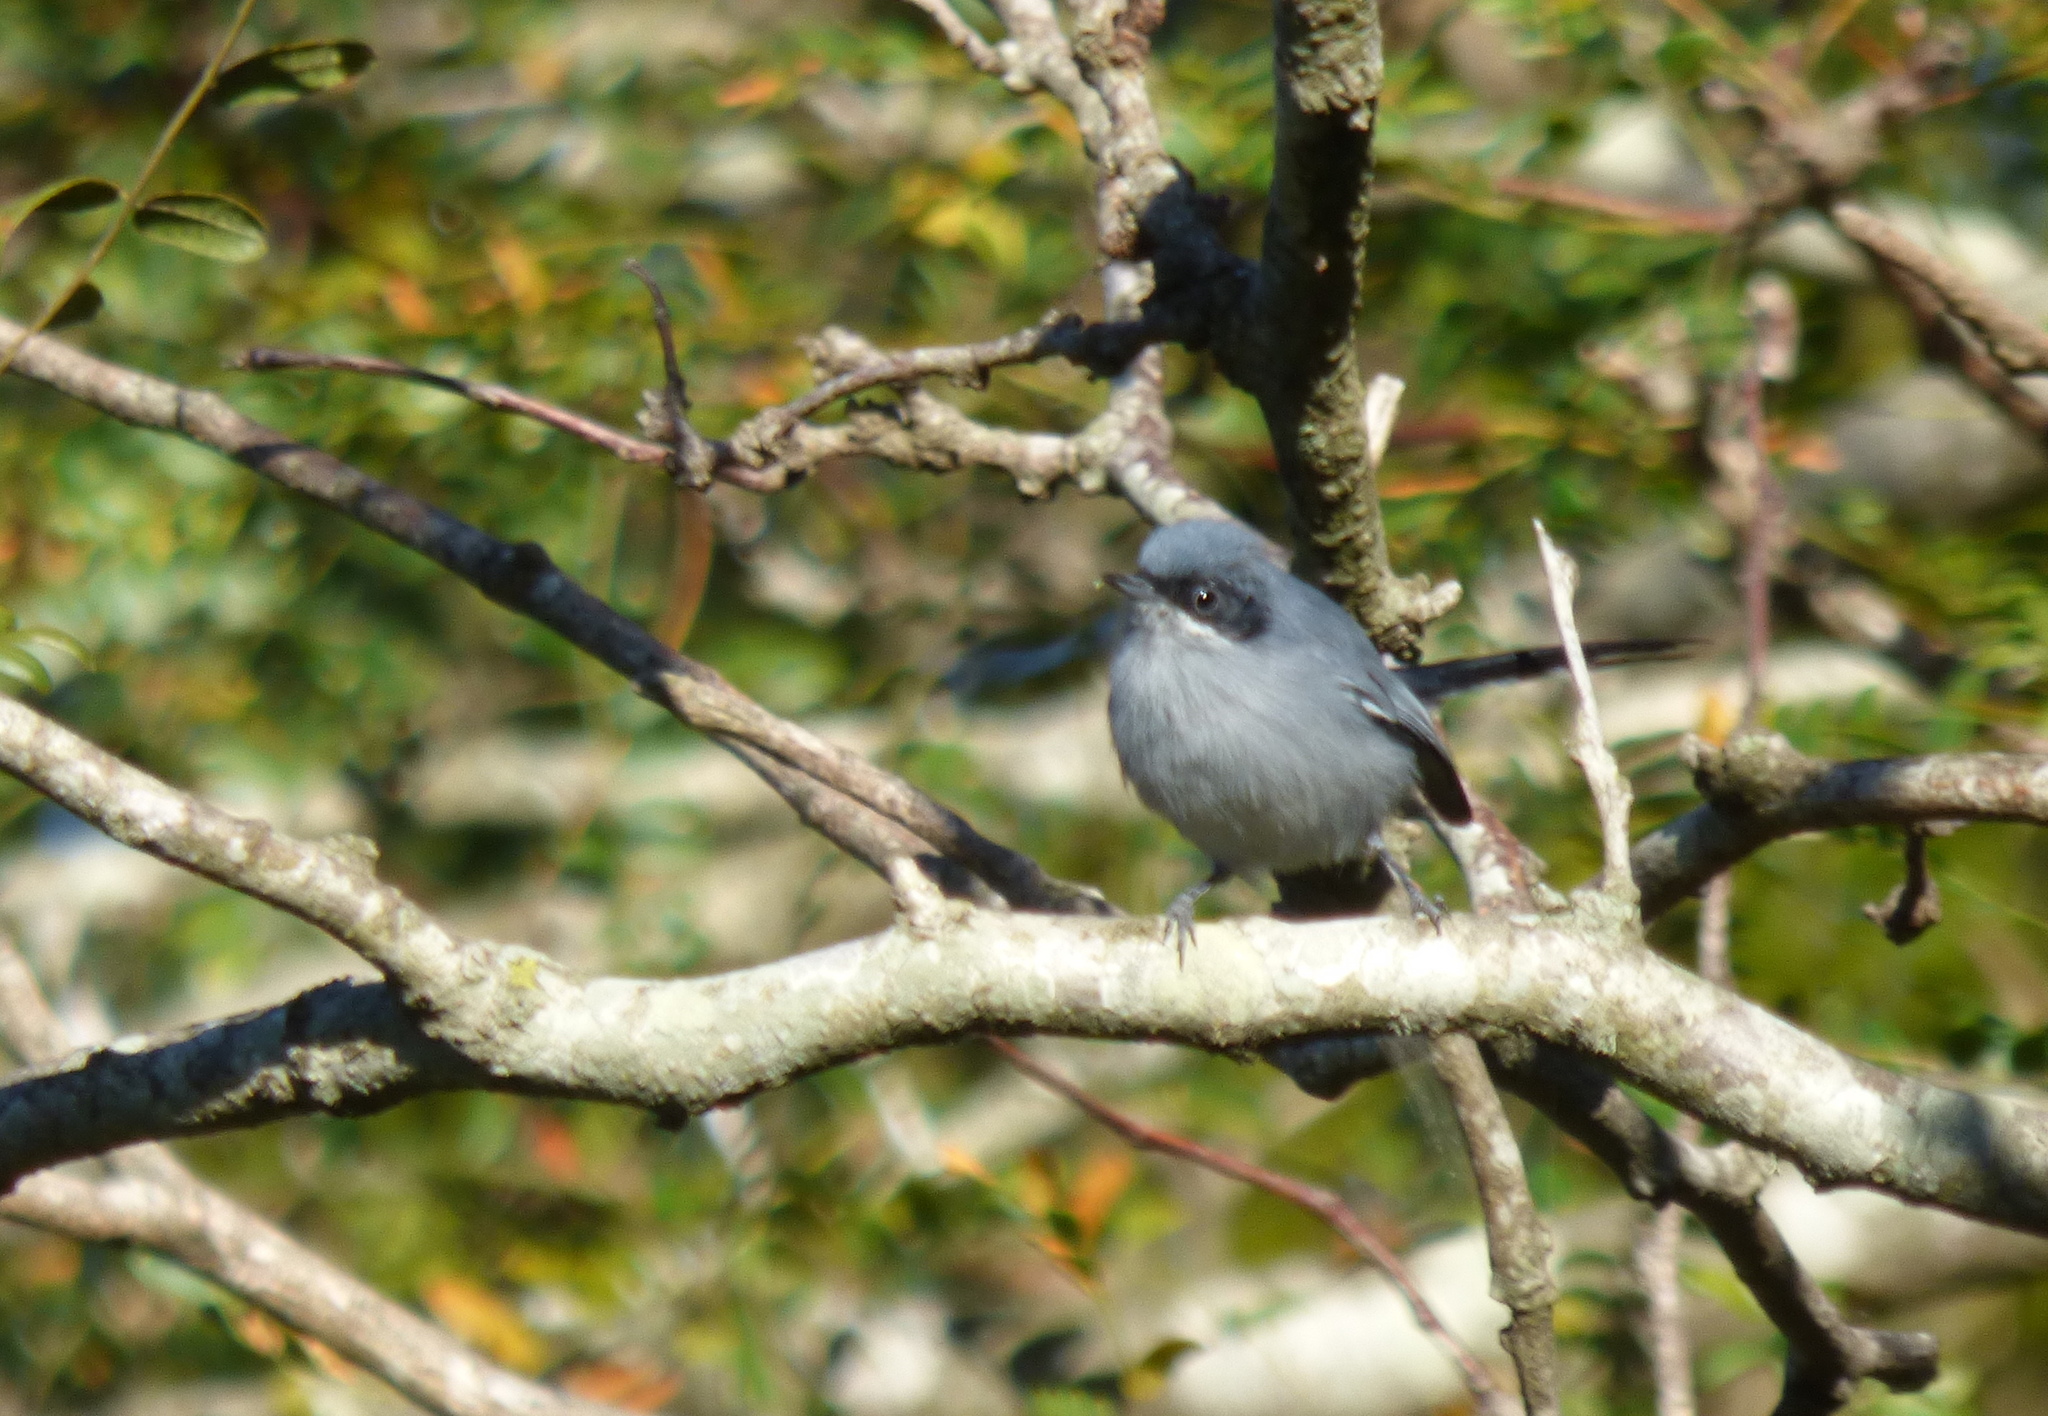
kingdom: Animalia
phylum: Chordata
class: Aves
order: Passeriformes
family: Polioptilidae
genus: Polioptila
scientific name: Polioptila dumicola
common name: Masked gnatcatcher
